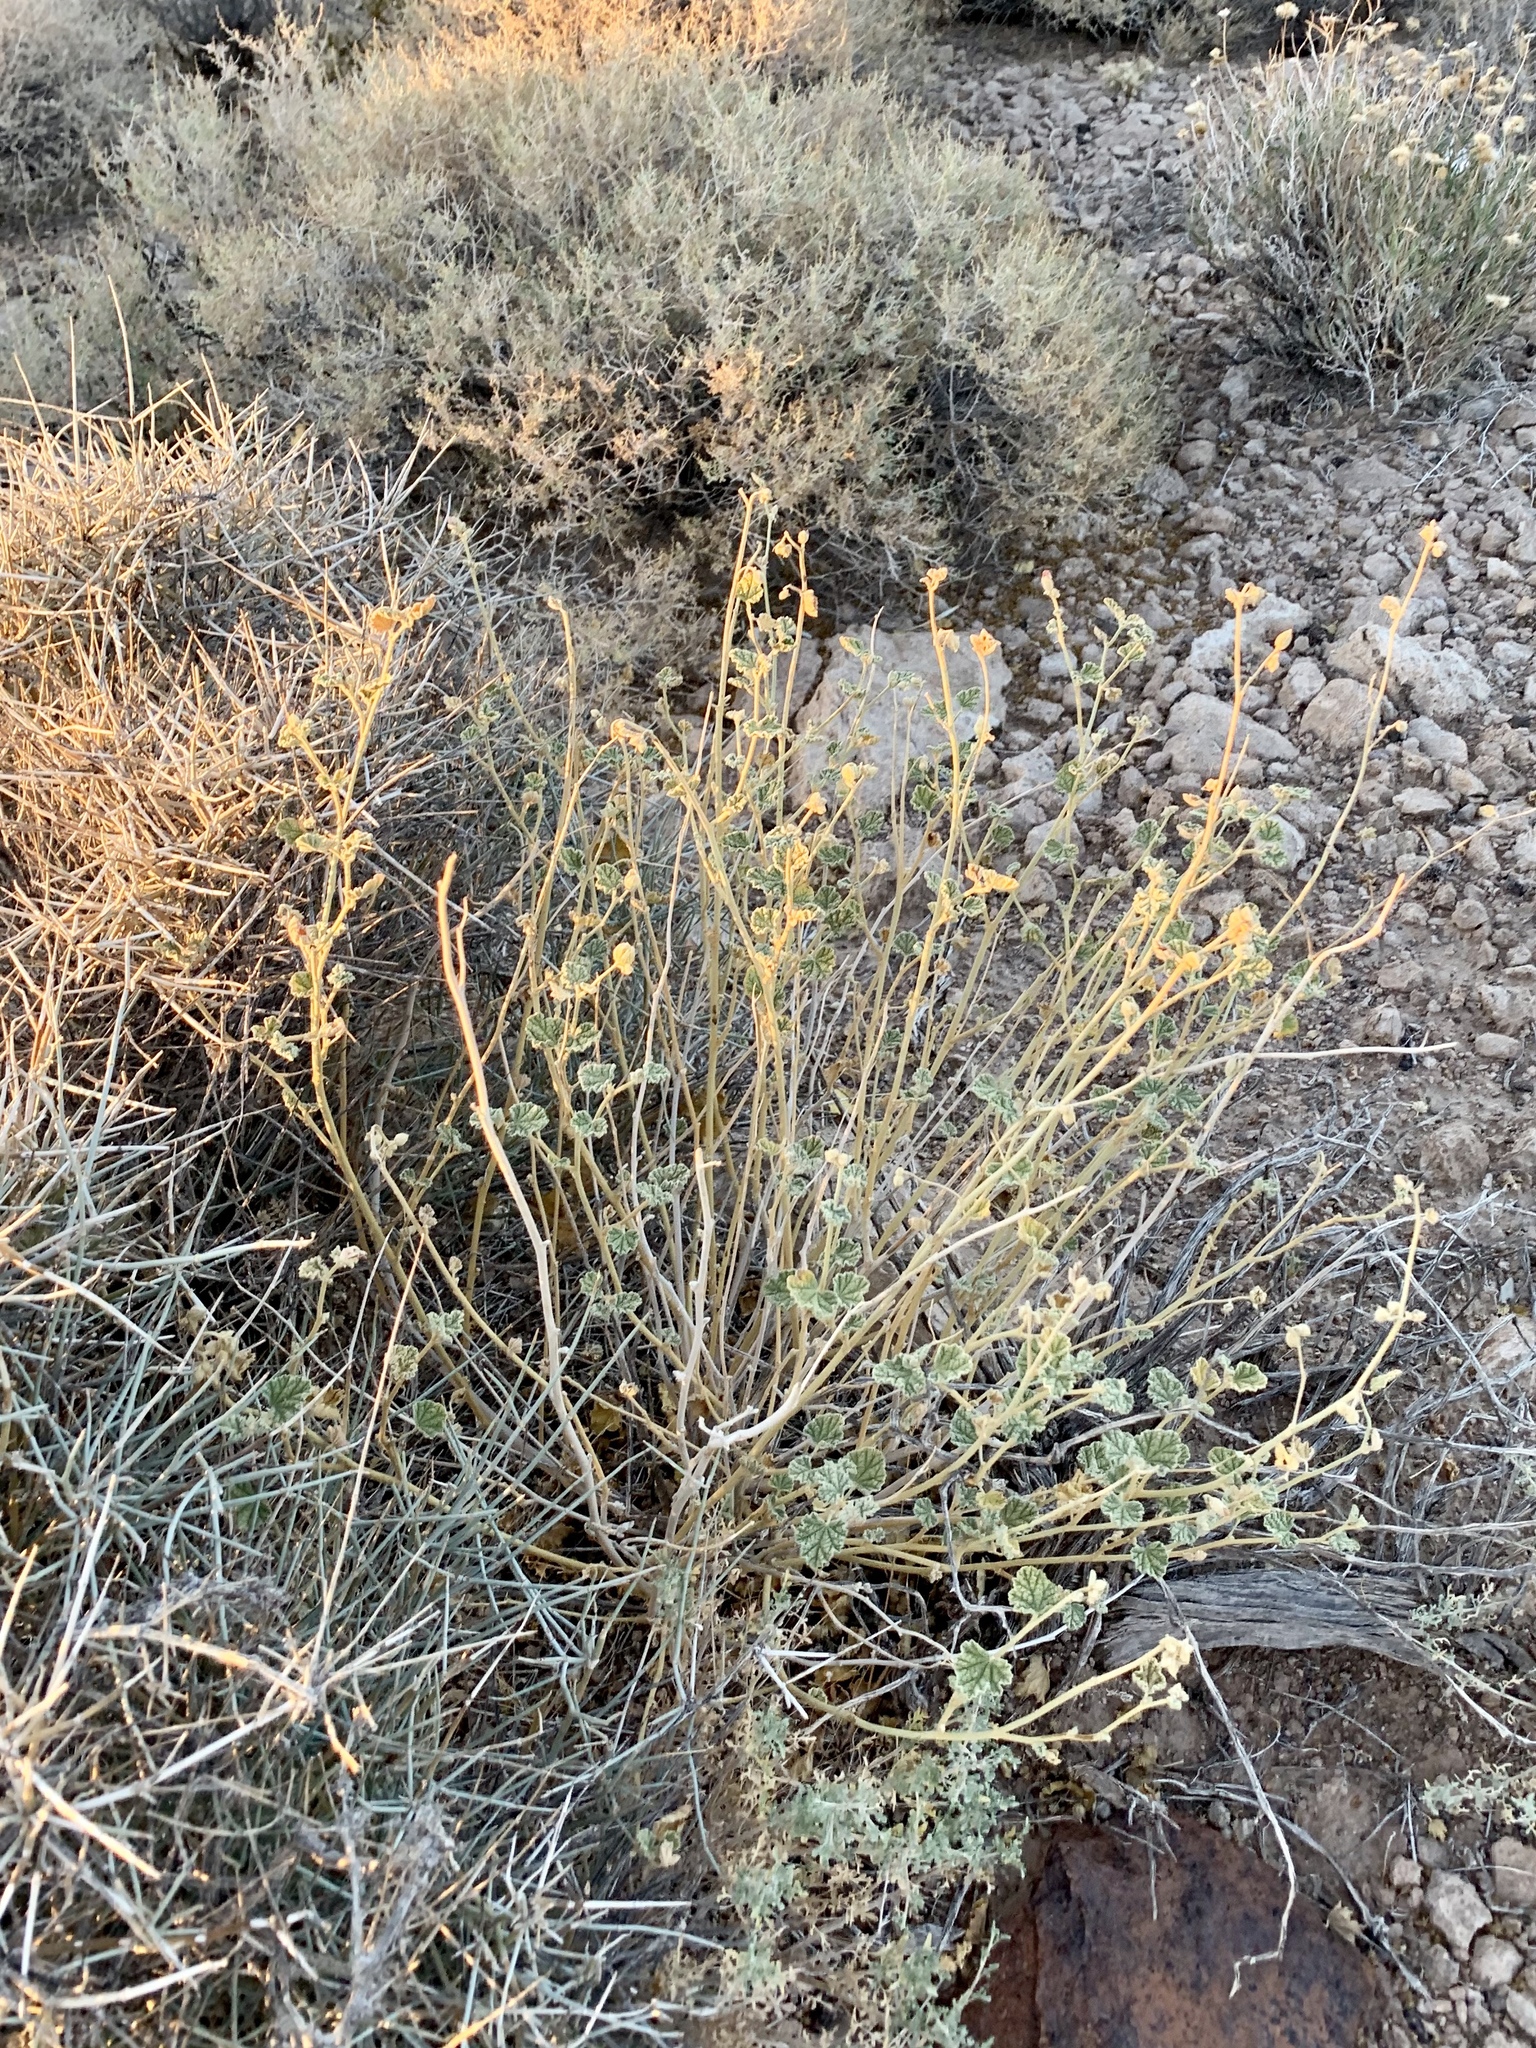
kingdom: Plantae
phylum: Tracheophyta
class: Magnoliopsida
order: Malvales
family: Malvaceae
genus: Sphaeralcea
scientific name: Sphaeralcea ambigua
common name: Apricot globe-mallow
